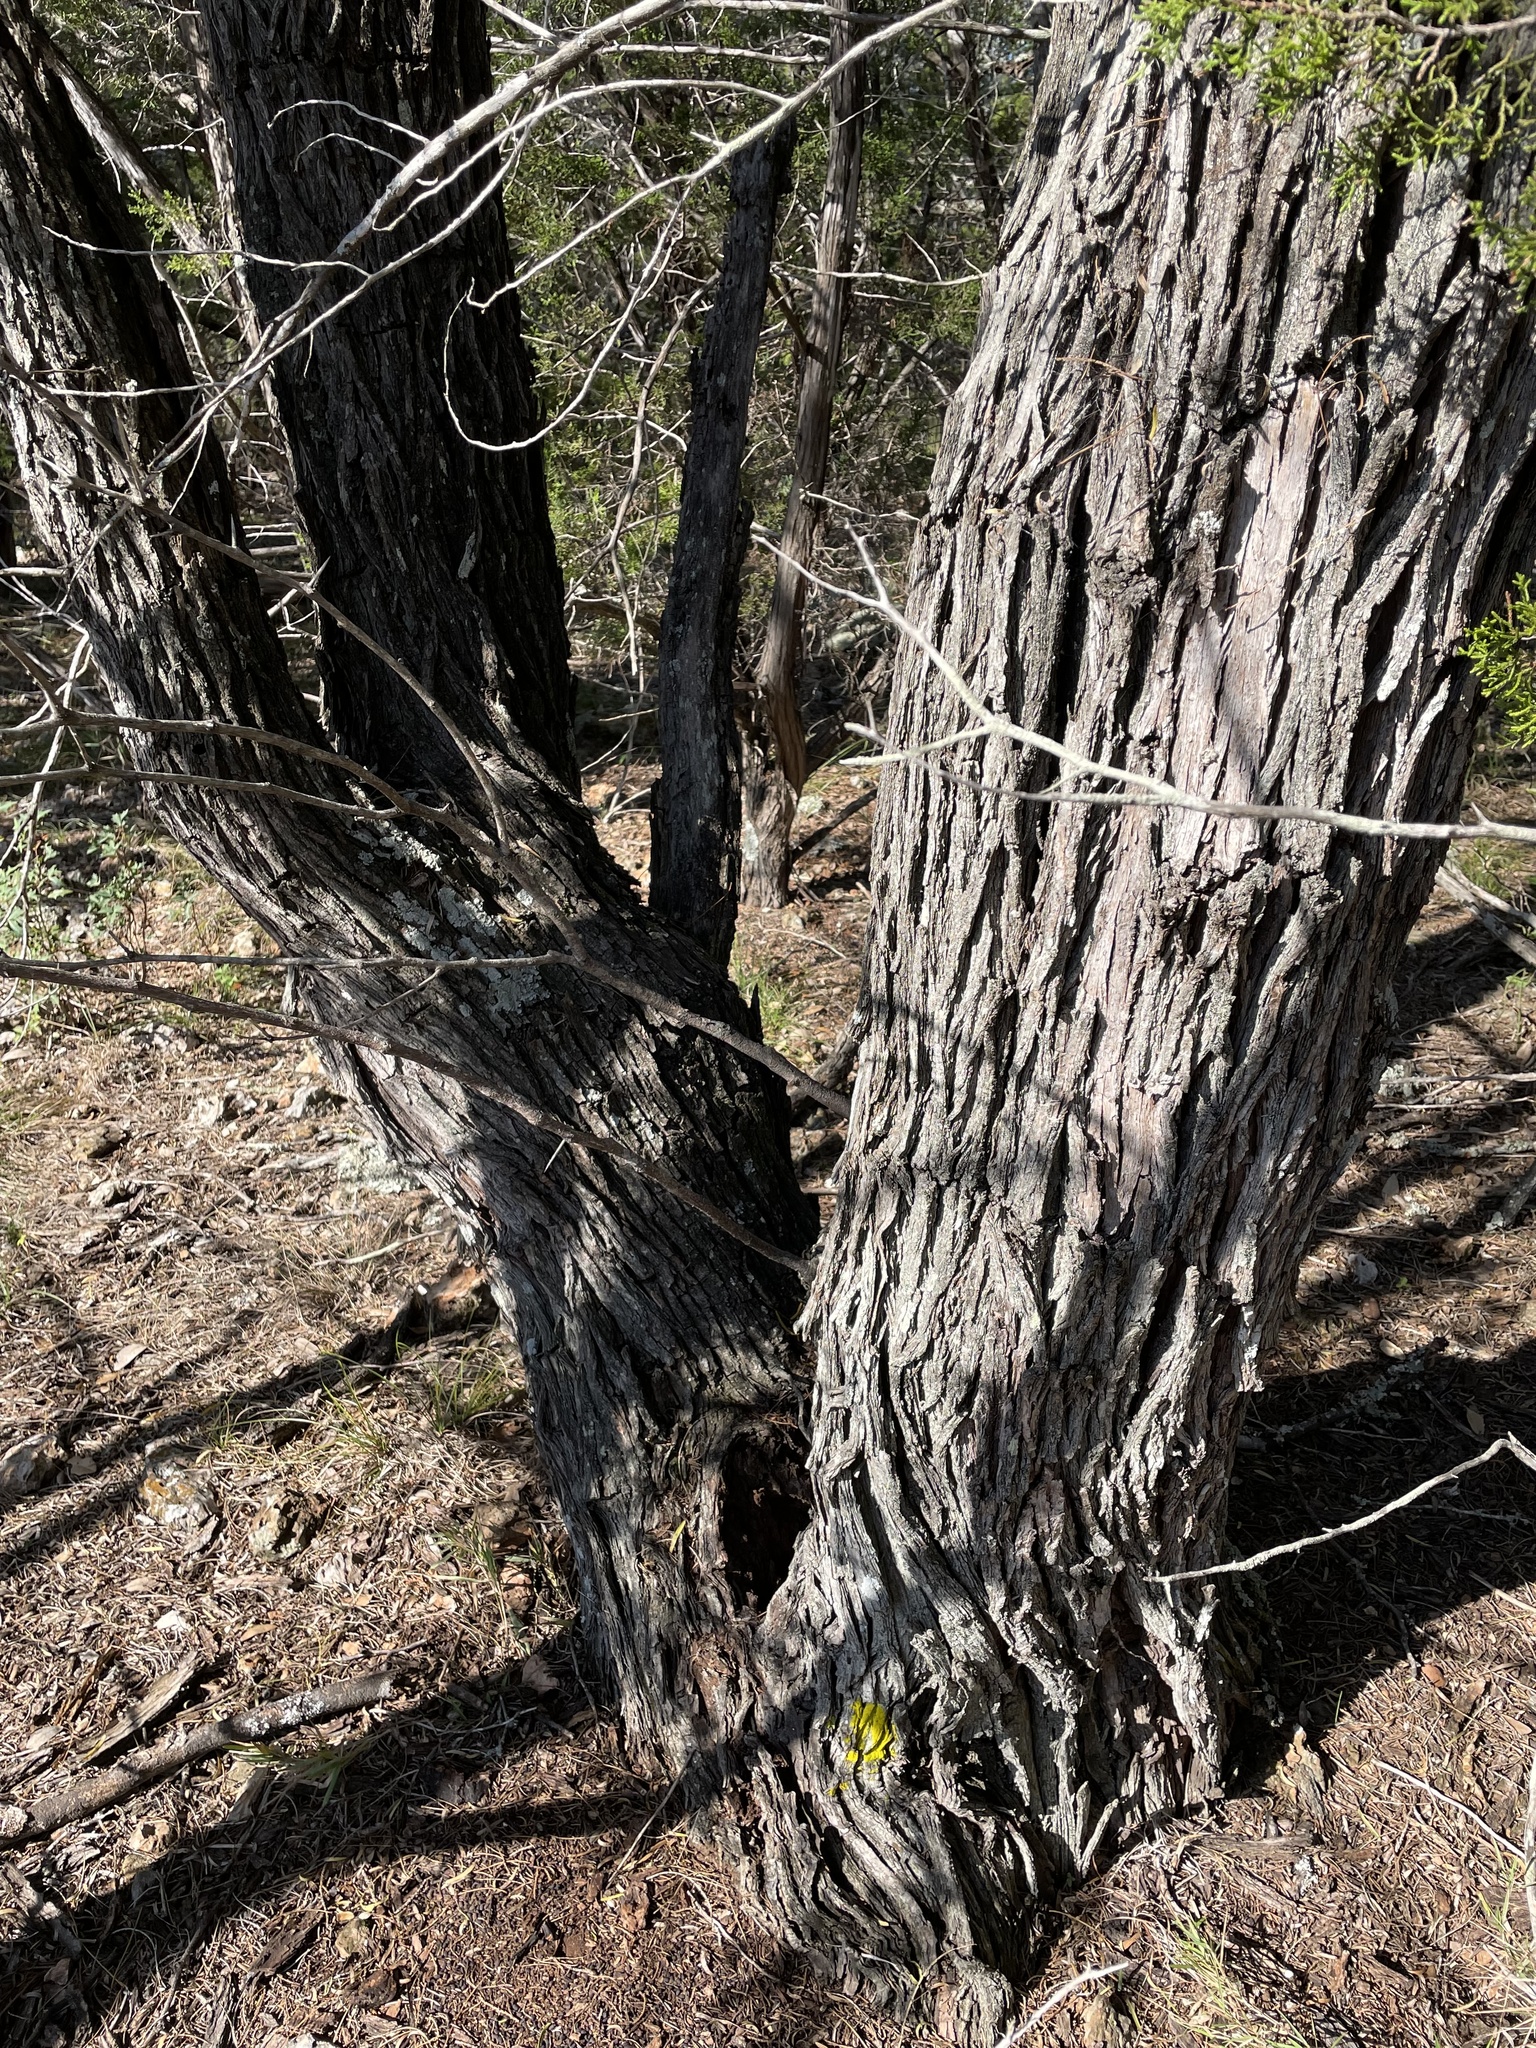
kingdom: Plantae
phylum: Tracheophyta
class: Magnoliopsida
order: Fabales
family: Fabaceae
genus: Prosopis
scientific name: Prosopis glandulosa
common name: Honey mesquite
